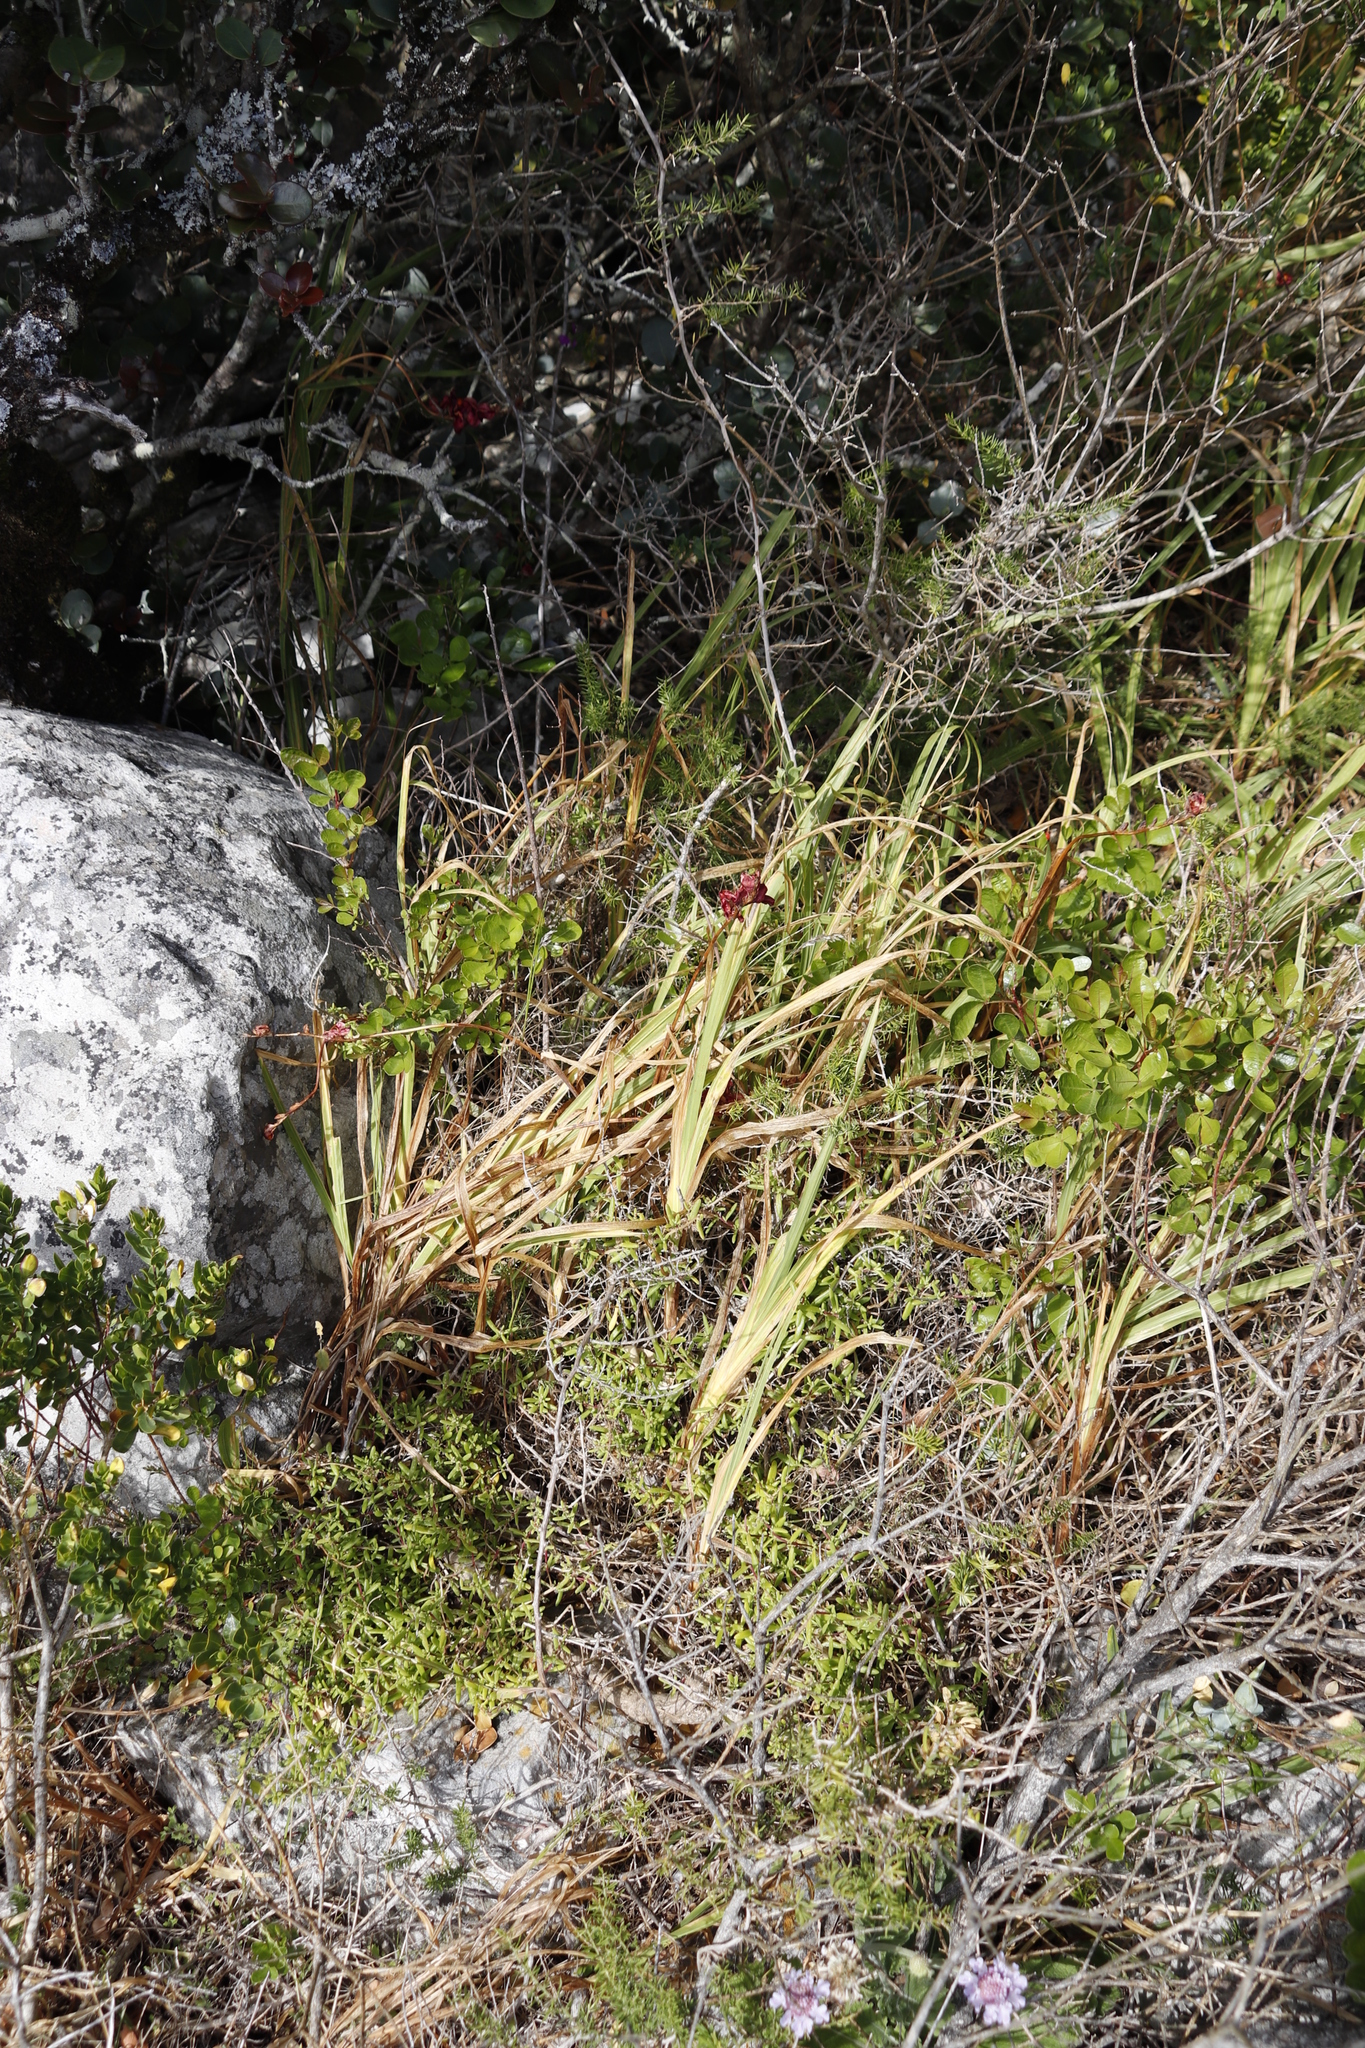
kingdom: Plantae
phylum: Tracheophyta
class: Liliopsida
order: Asparagales
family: Iridaceae
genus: Chasmanthe
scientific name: Chasmanthe aethiopica
